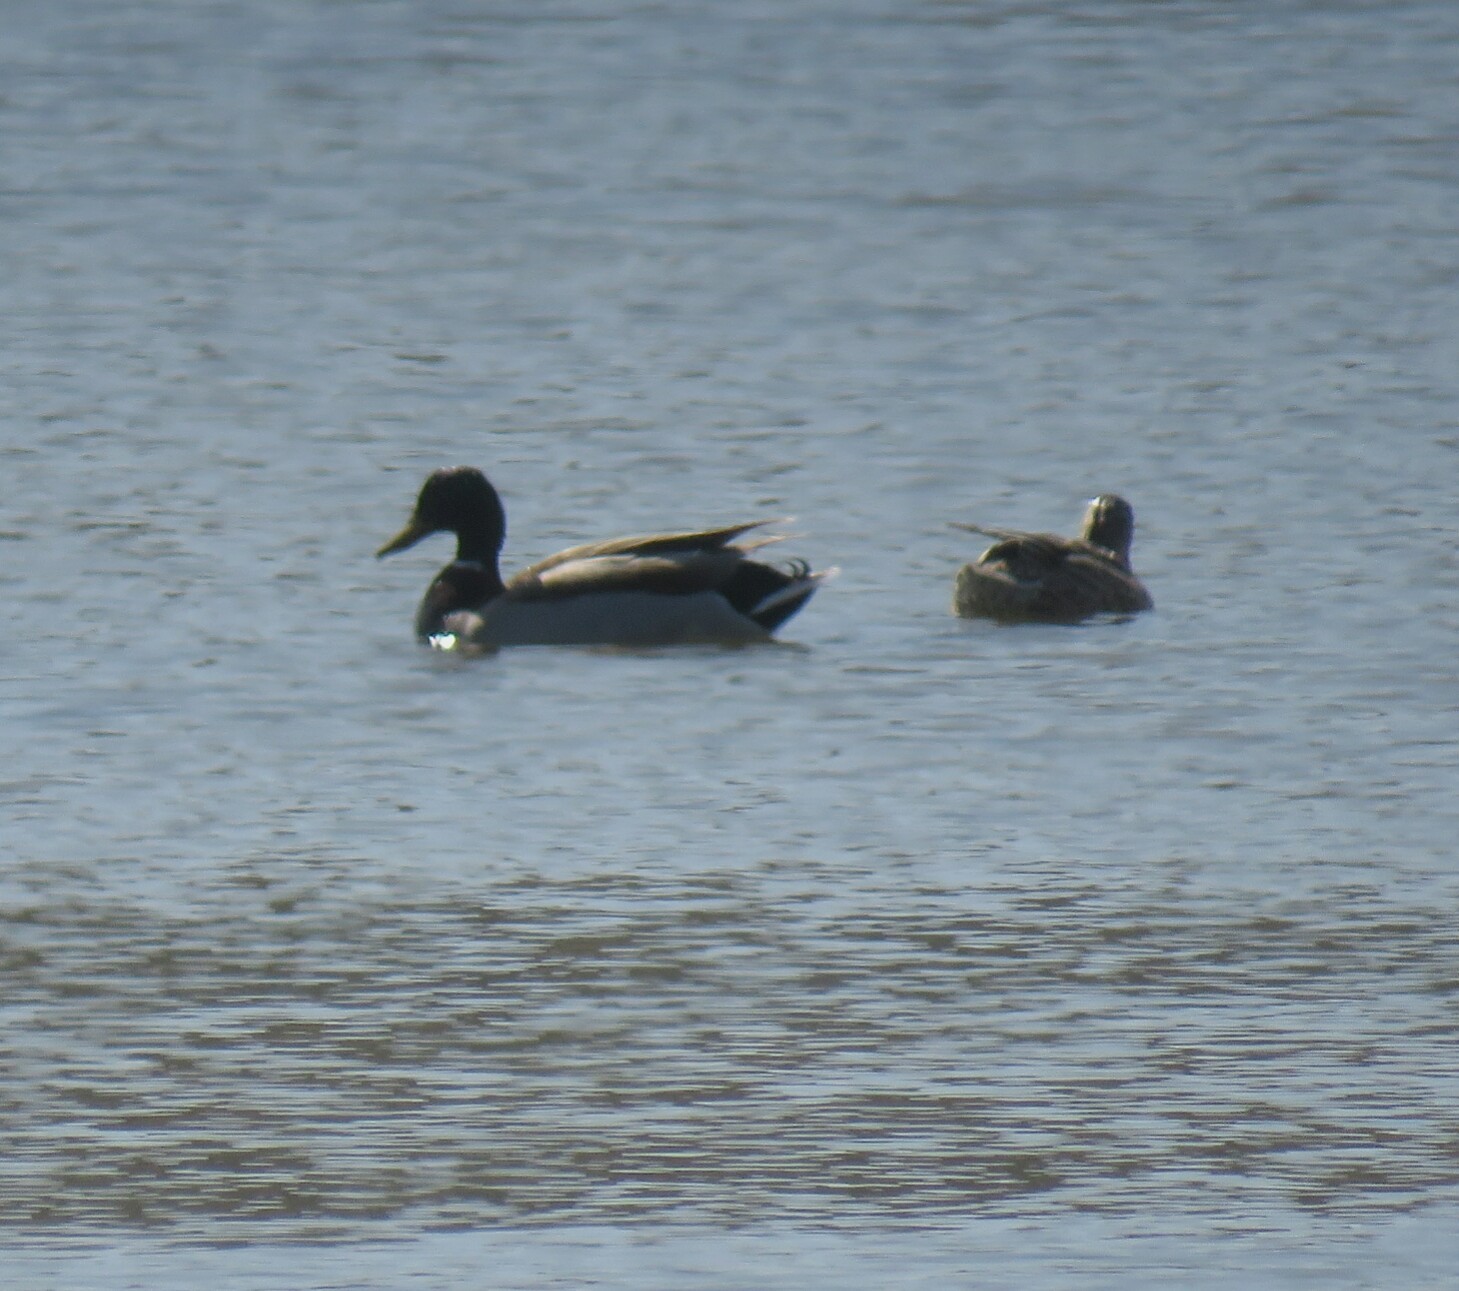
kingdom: Animalia
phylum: Chordata
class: Aves
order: Anseriformes
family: Anatidae
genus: Anas
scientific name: Anas platyrhynchos
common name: Mallard
